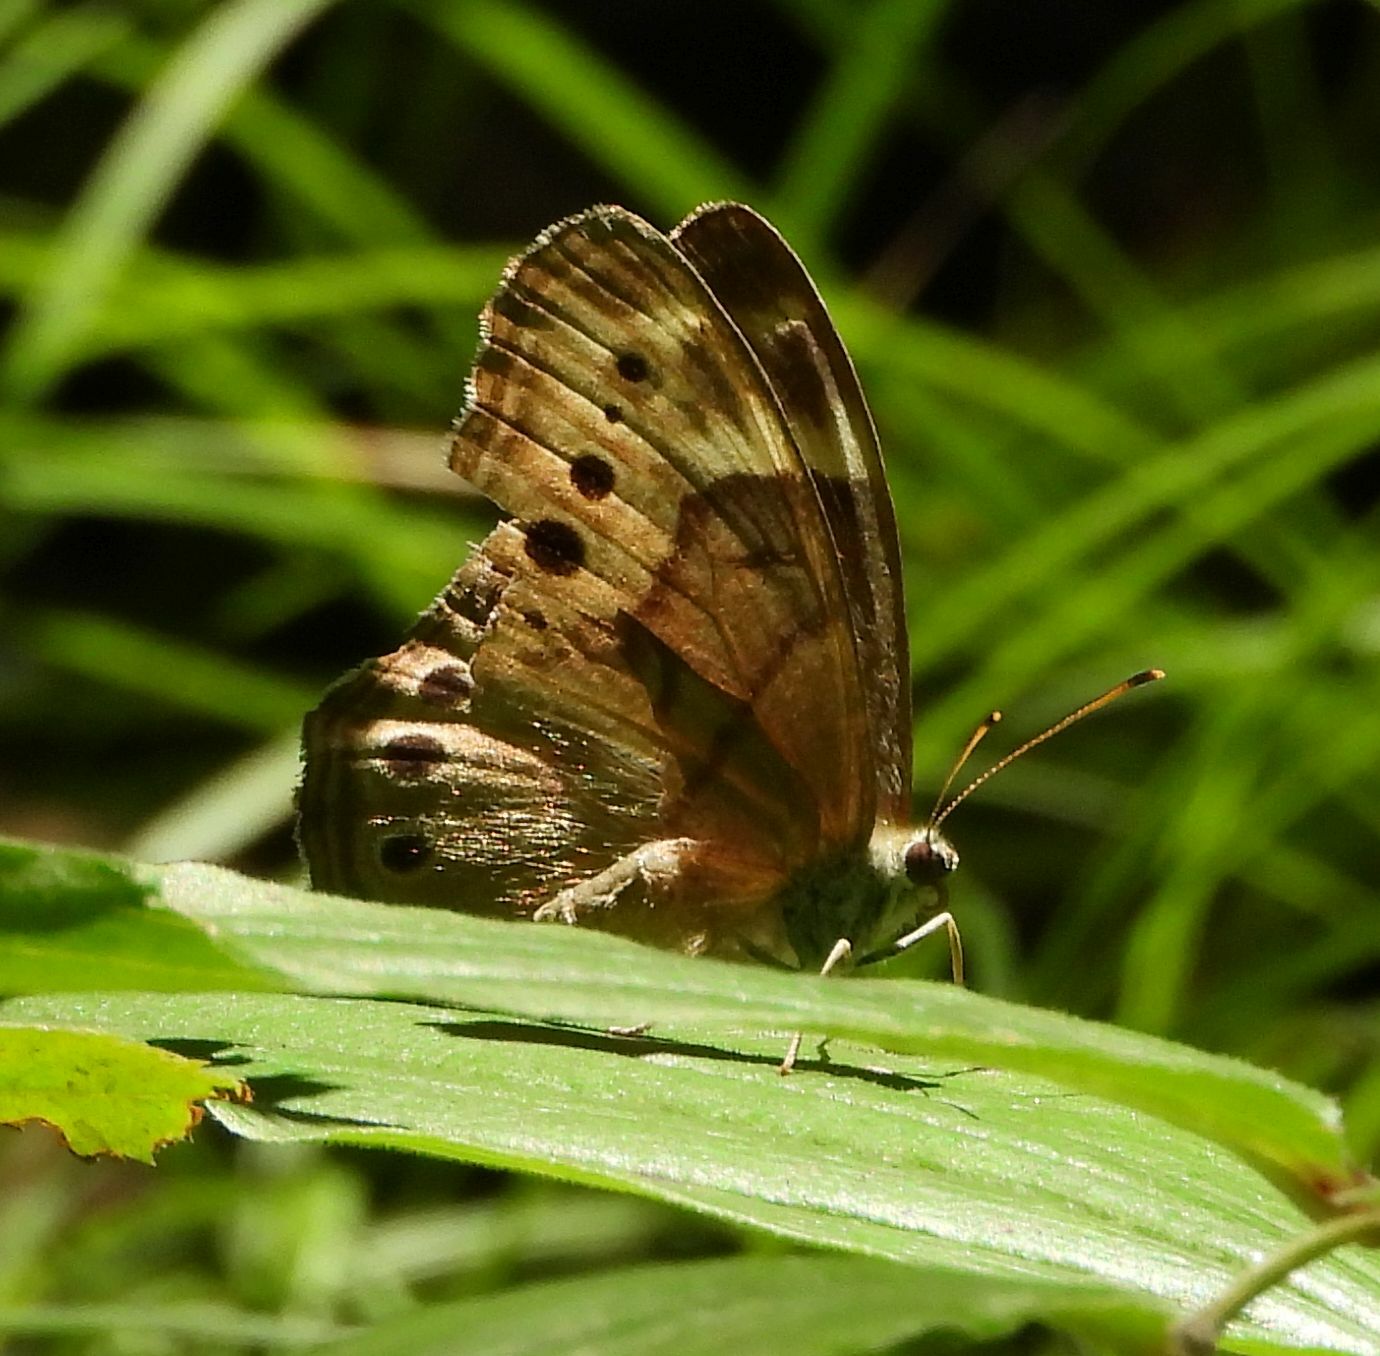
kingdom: Animalia
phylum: Arthropoda
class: Insecta
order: Lepidoptera
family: Nymphalidae
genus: Lethe
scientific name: Lethe anthedon
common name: Northern pearly-eye
